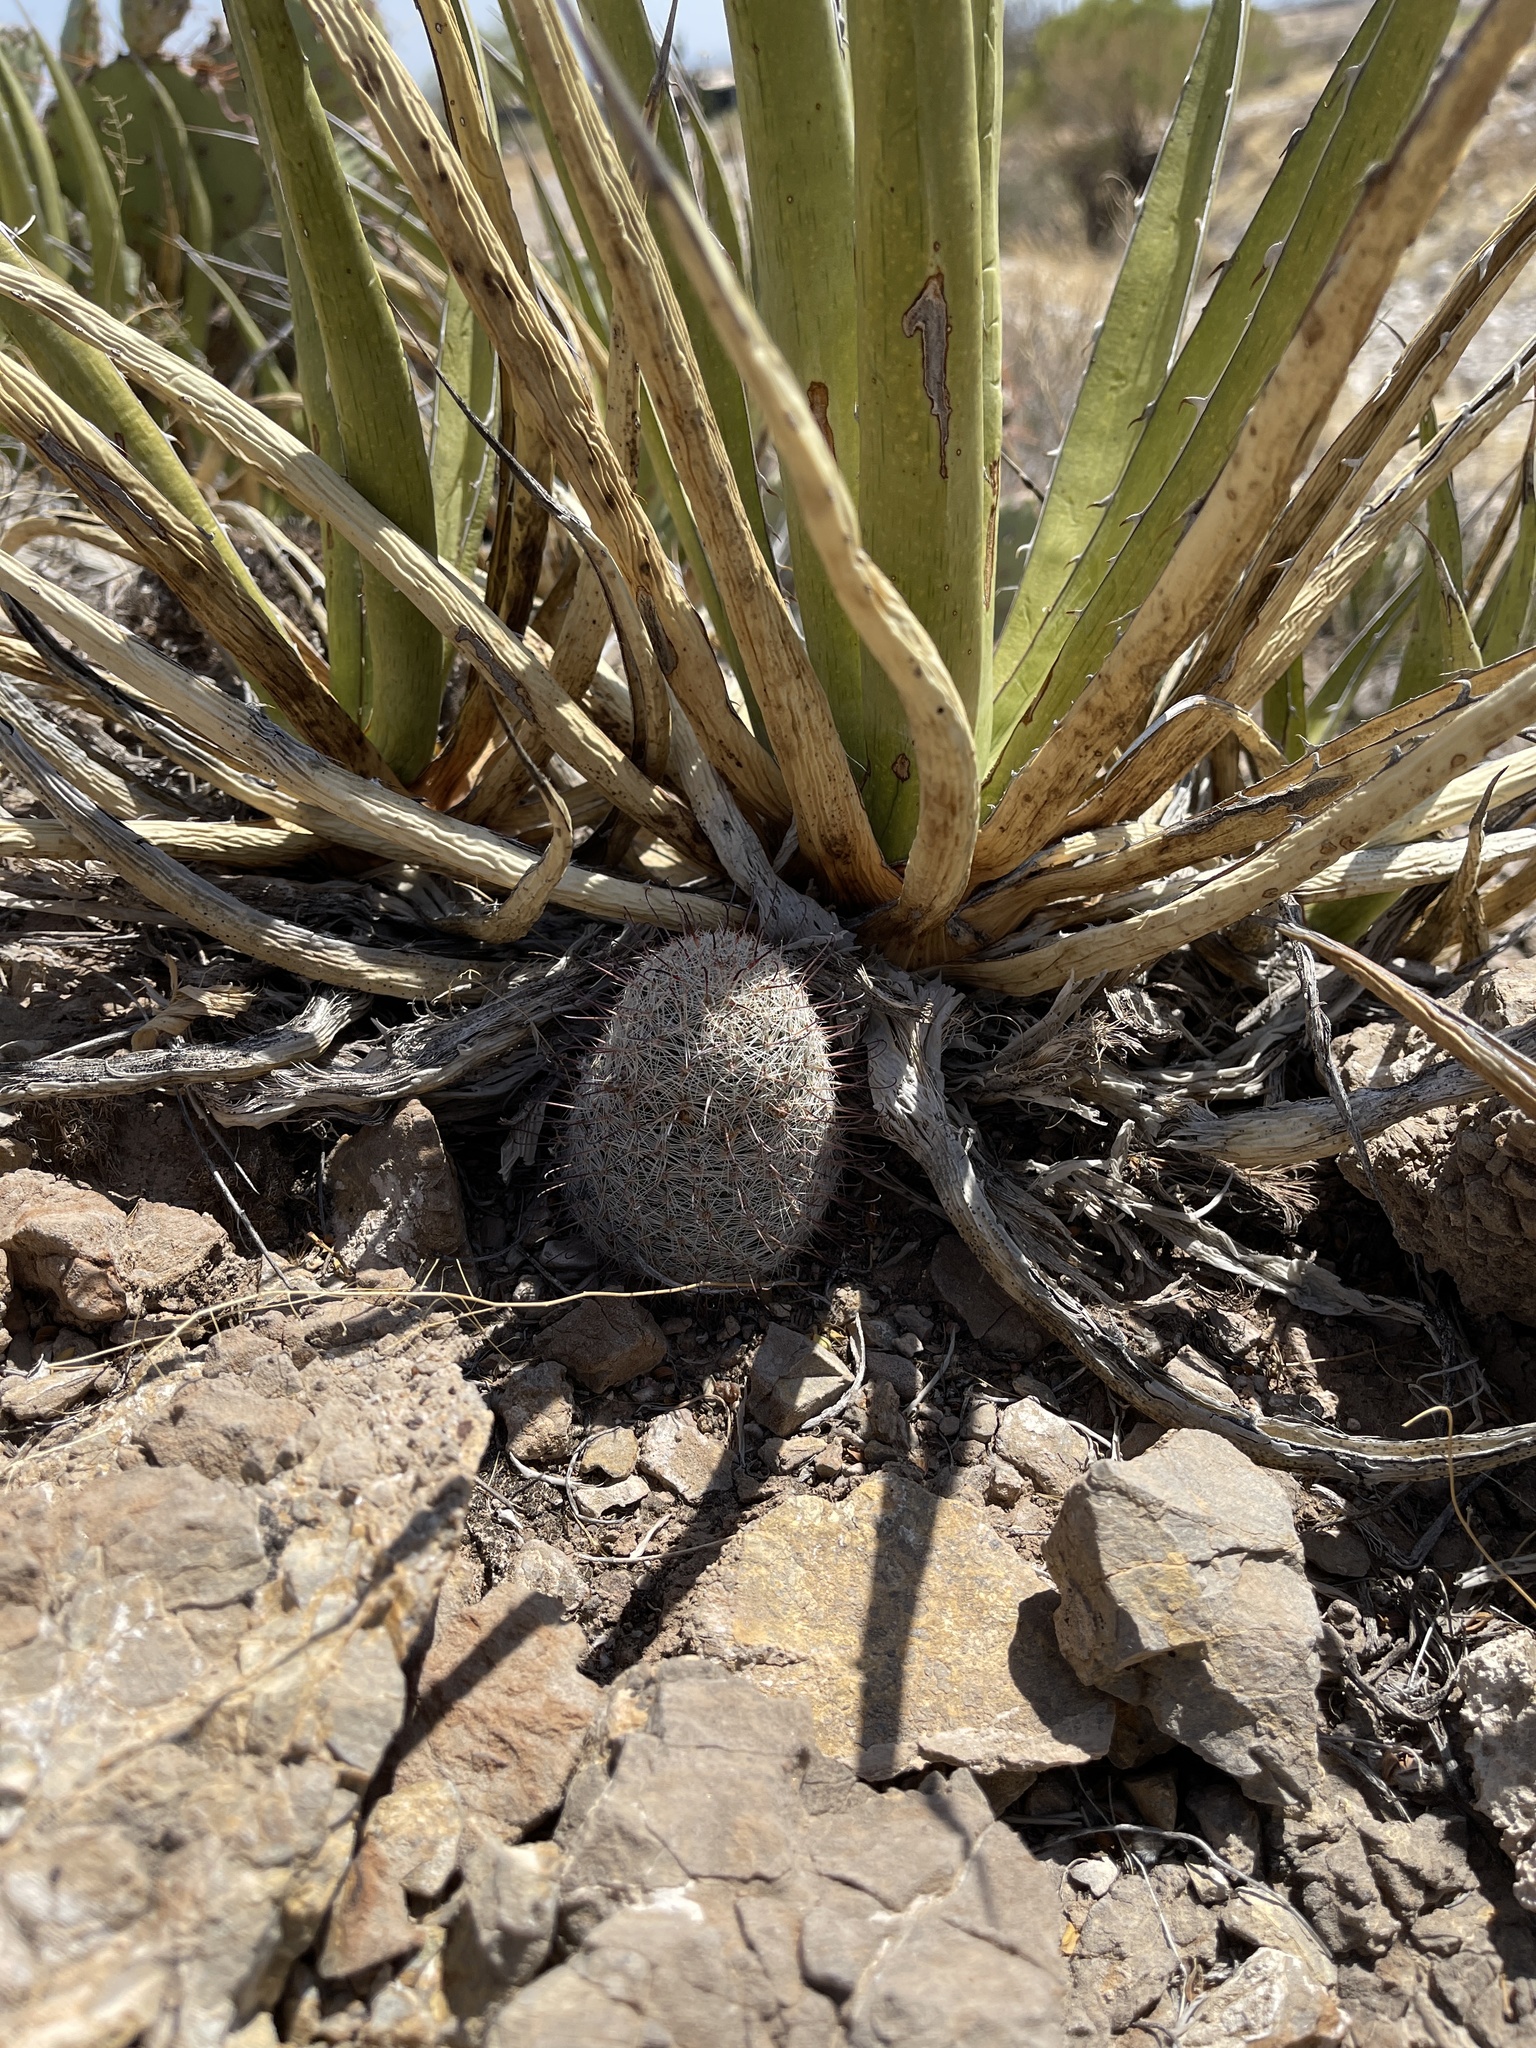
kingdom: Plantae
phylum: Tracheophyta
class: Magnoliopsida
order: Caryophyllales
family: Cactaceae
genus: Cochemiea
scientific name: Cochemiea grahamii
